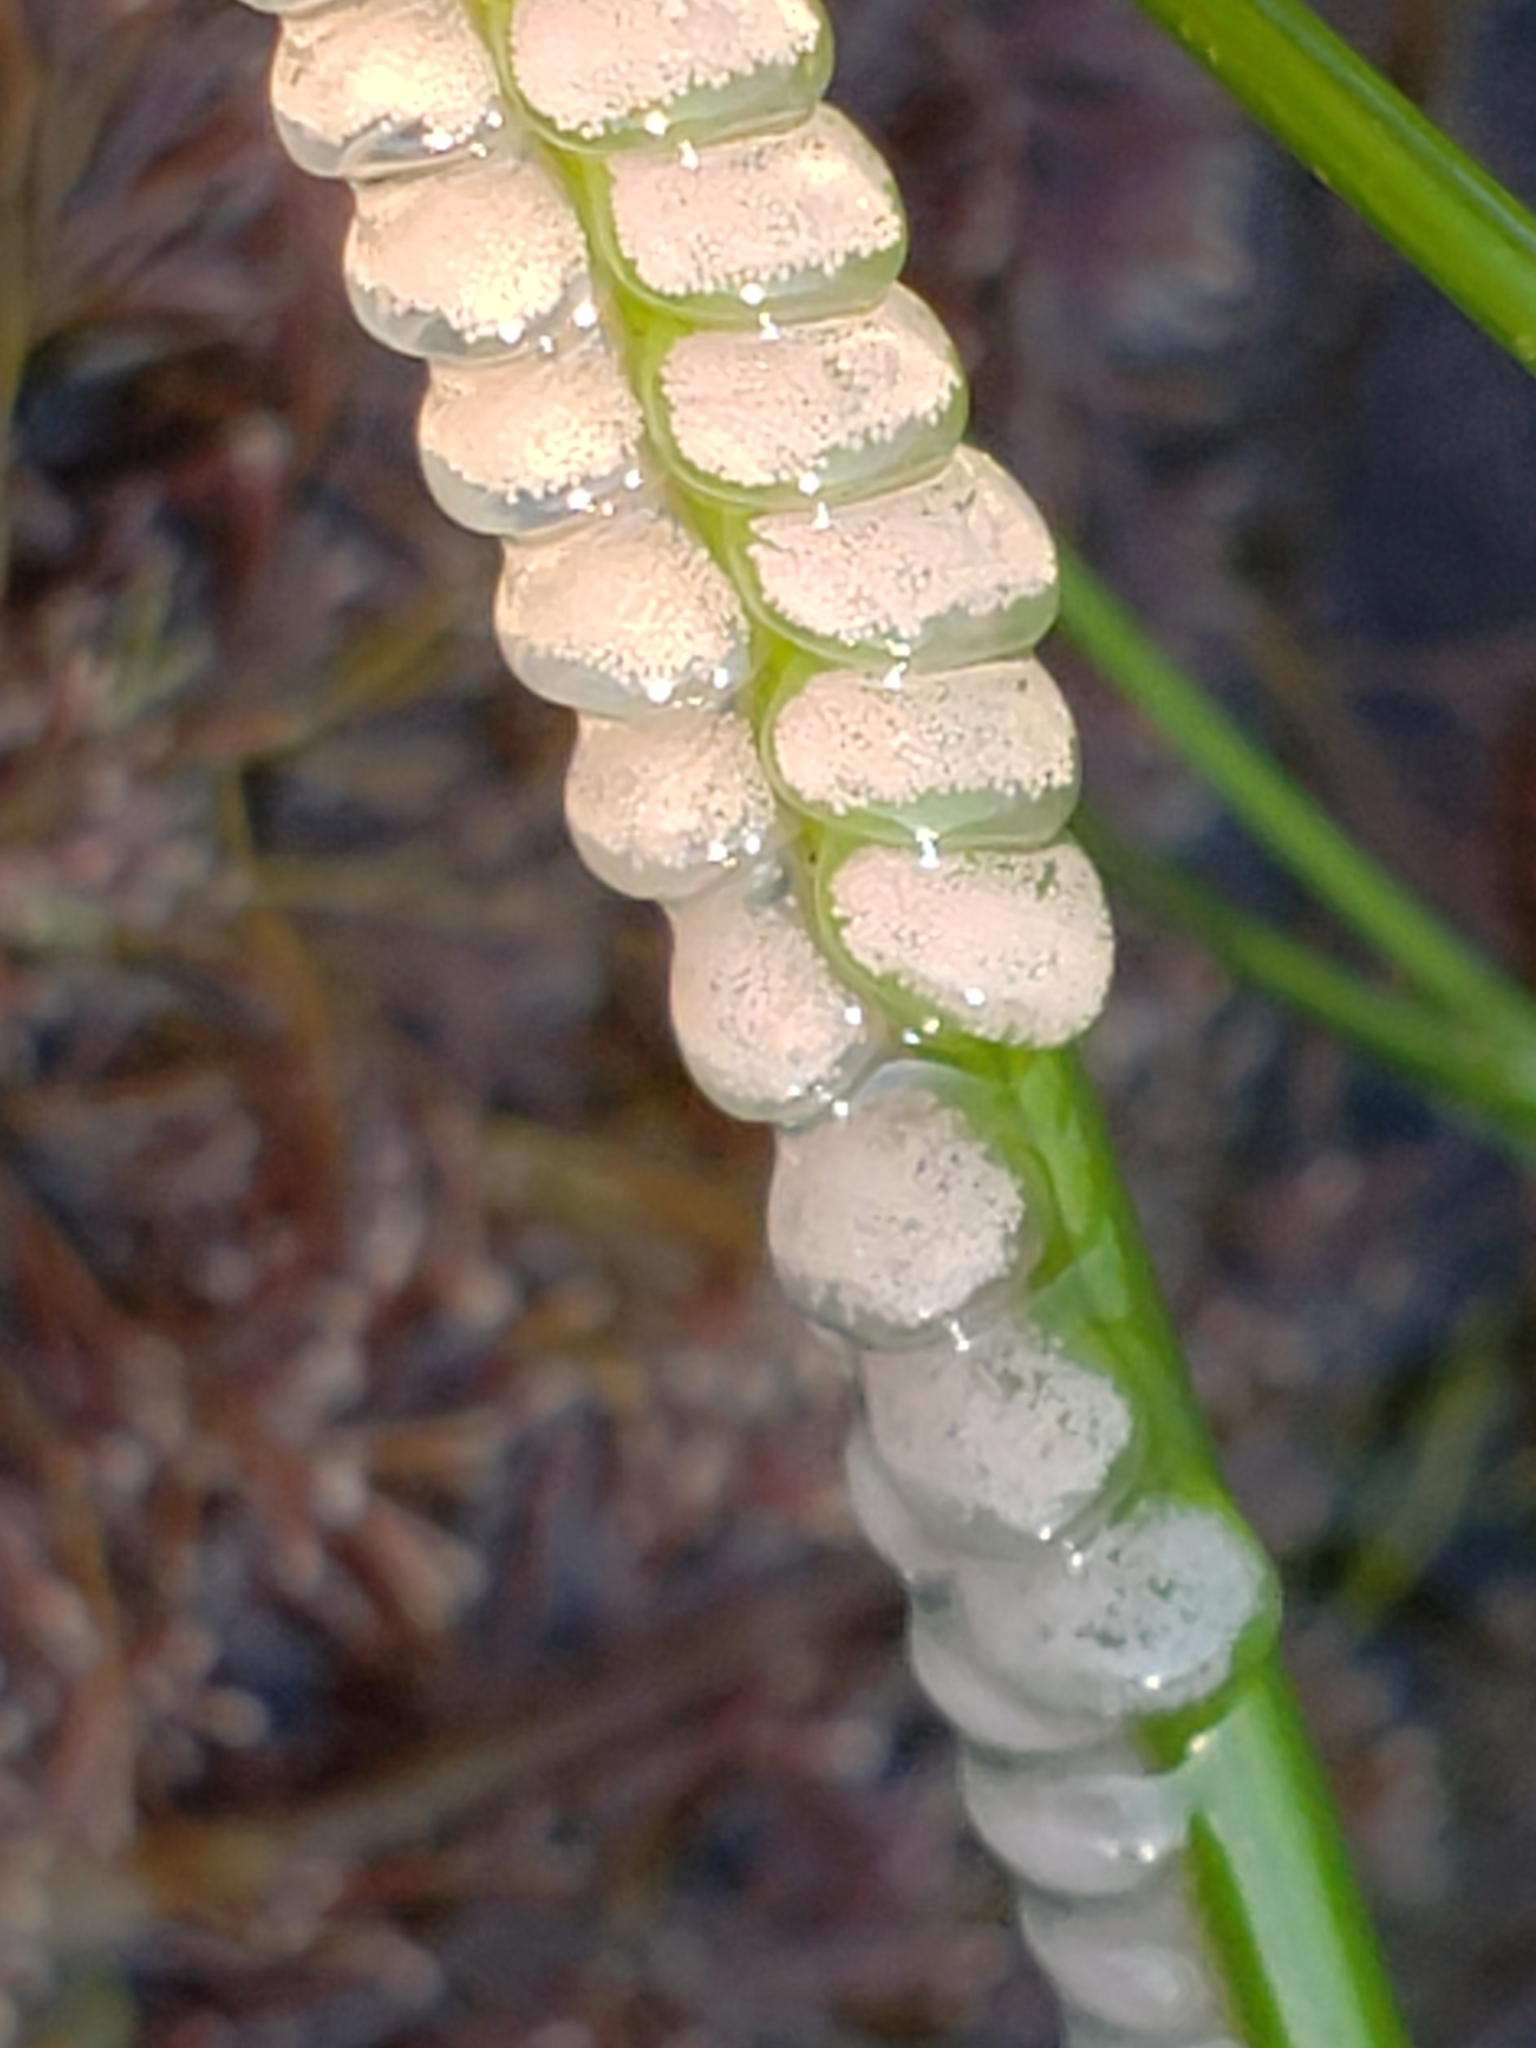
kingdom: Animalia
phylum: Mollusca
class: Gastropoda
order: Neogastropoda
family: Conidae
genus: Californiconus
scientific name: Californiconus californicus
